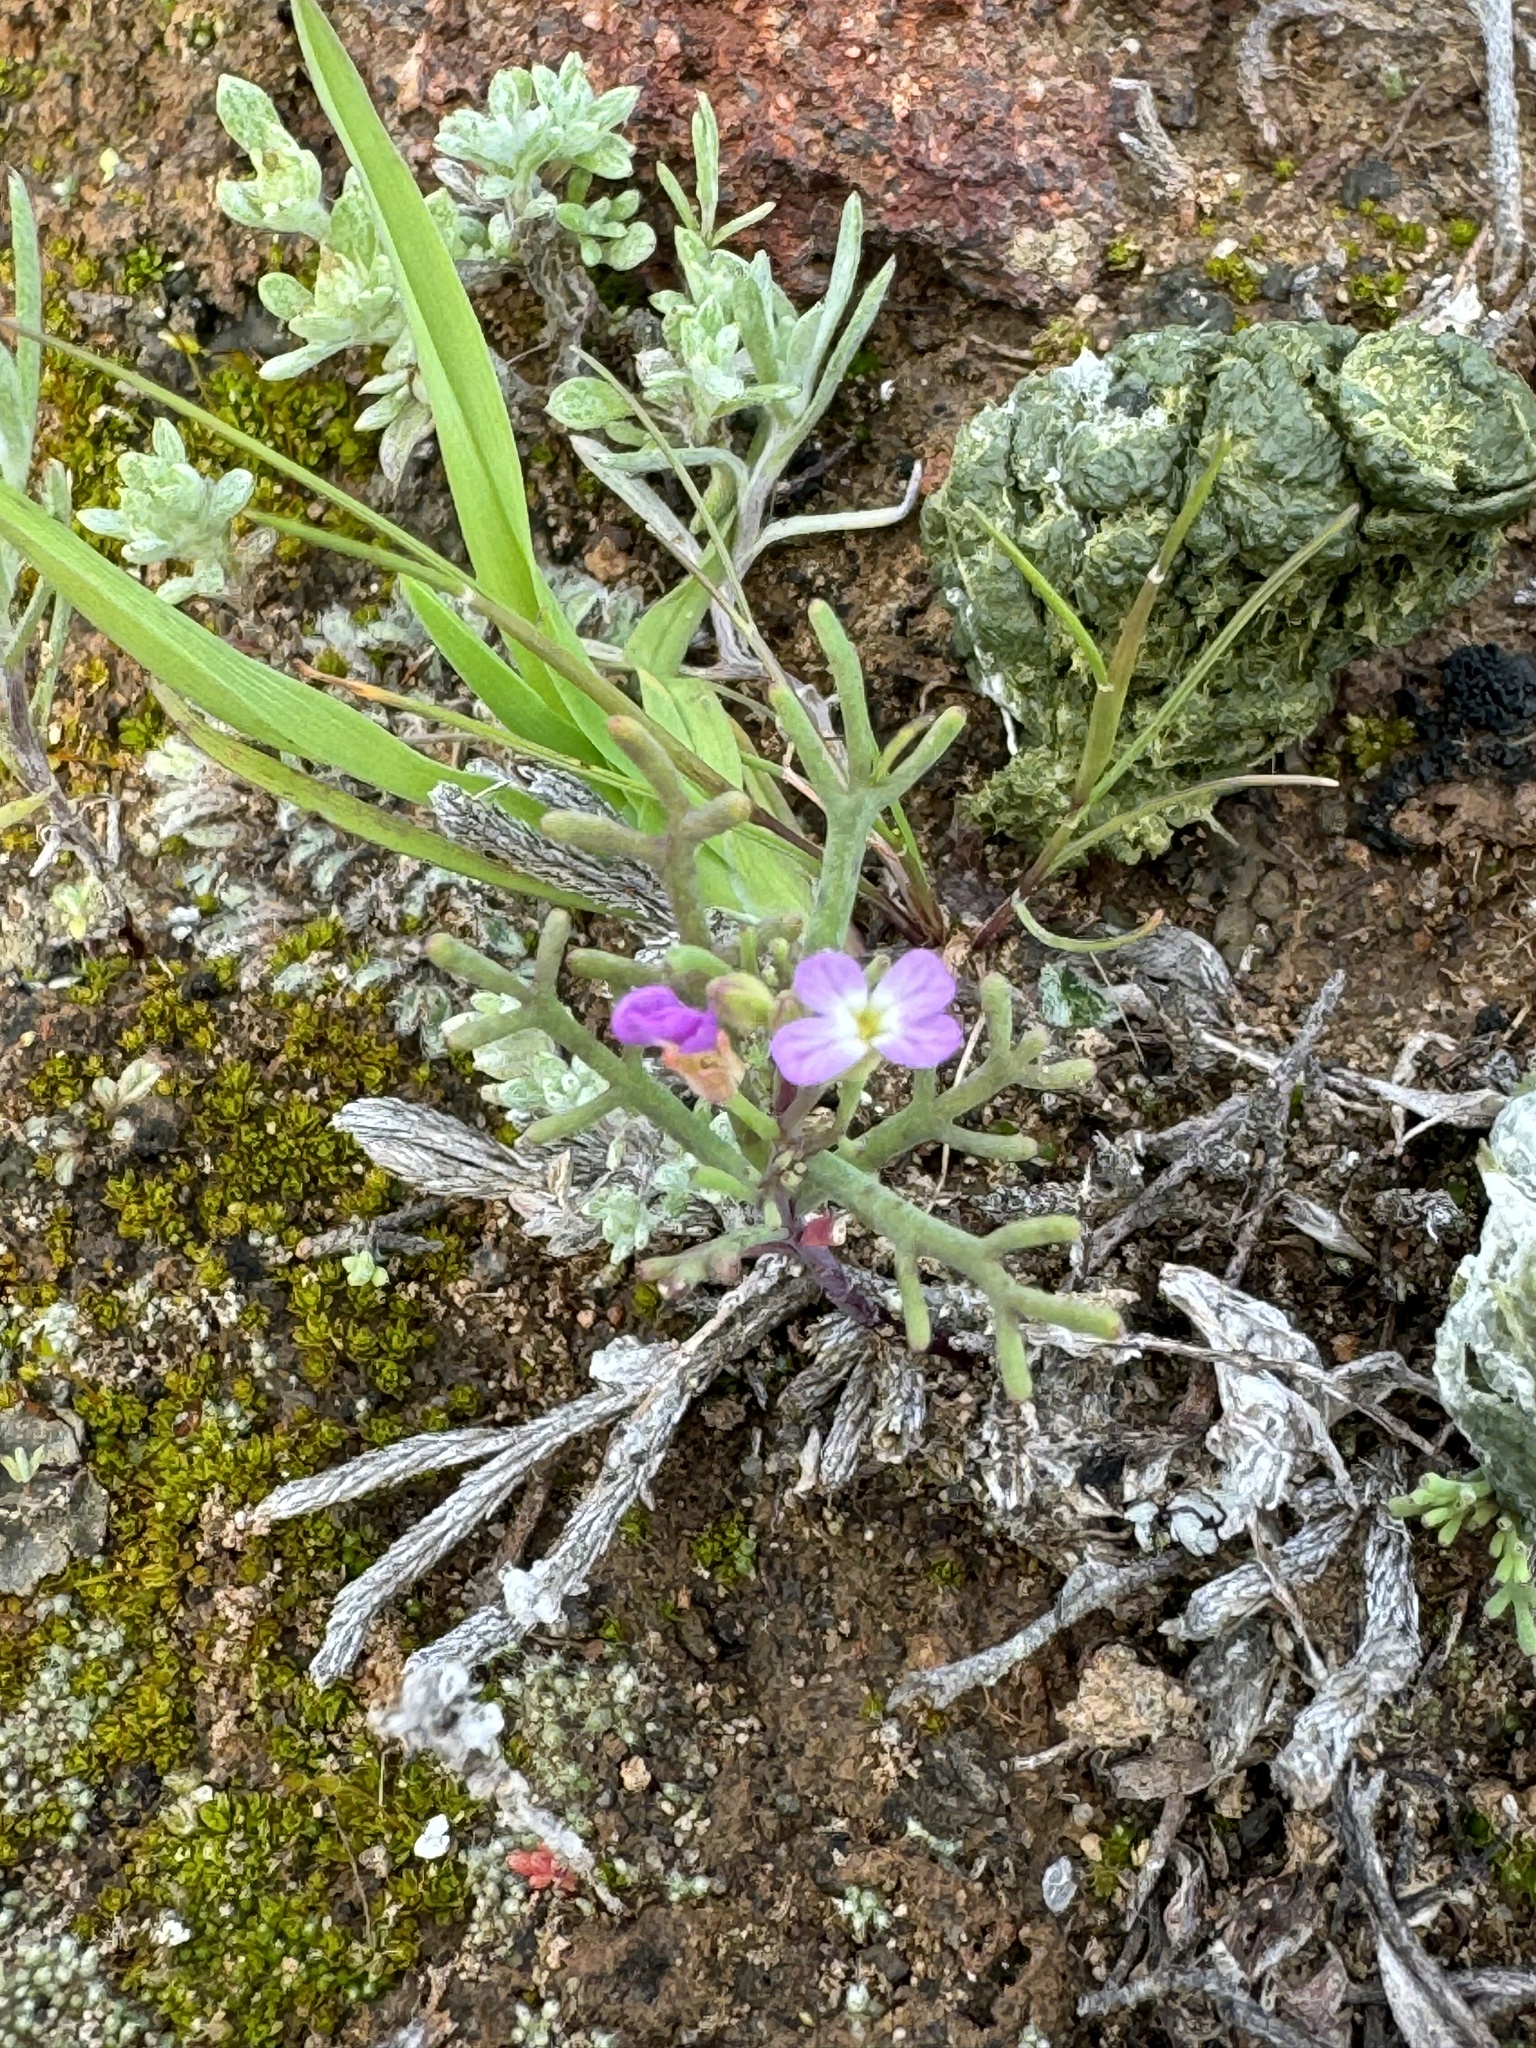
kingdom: Plantae
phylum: Tracheophyta
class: Magnoliopsida
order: Brassicales
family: Brassicaceae
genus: Sibara
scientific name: Sibara filifolia
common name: Santa cruz island-rockcress
